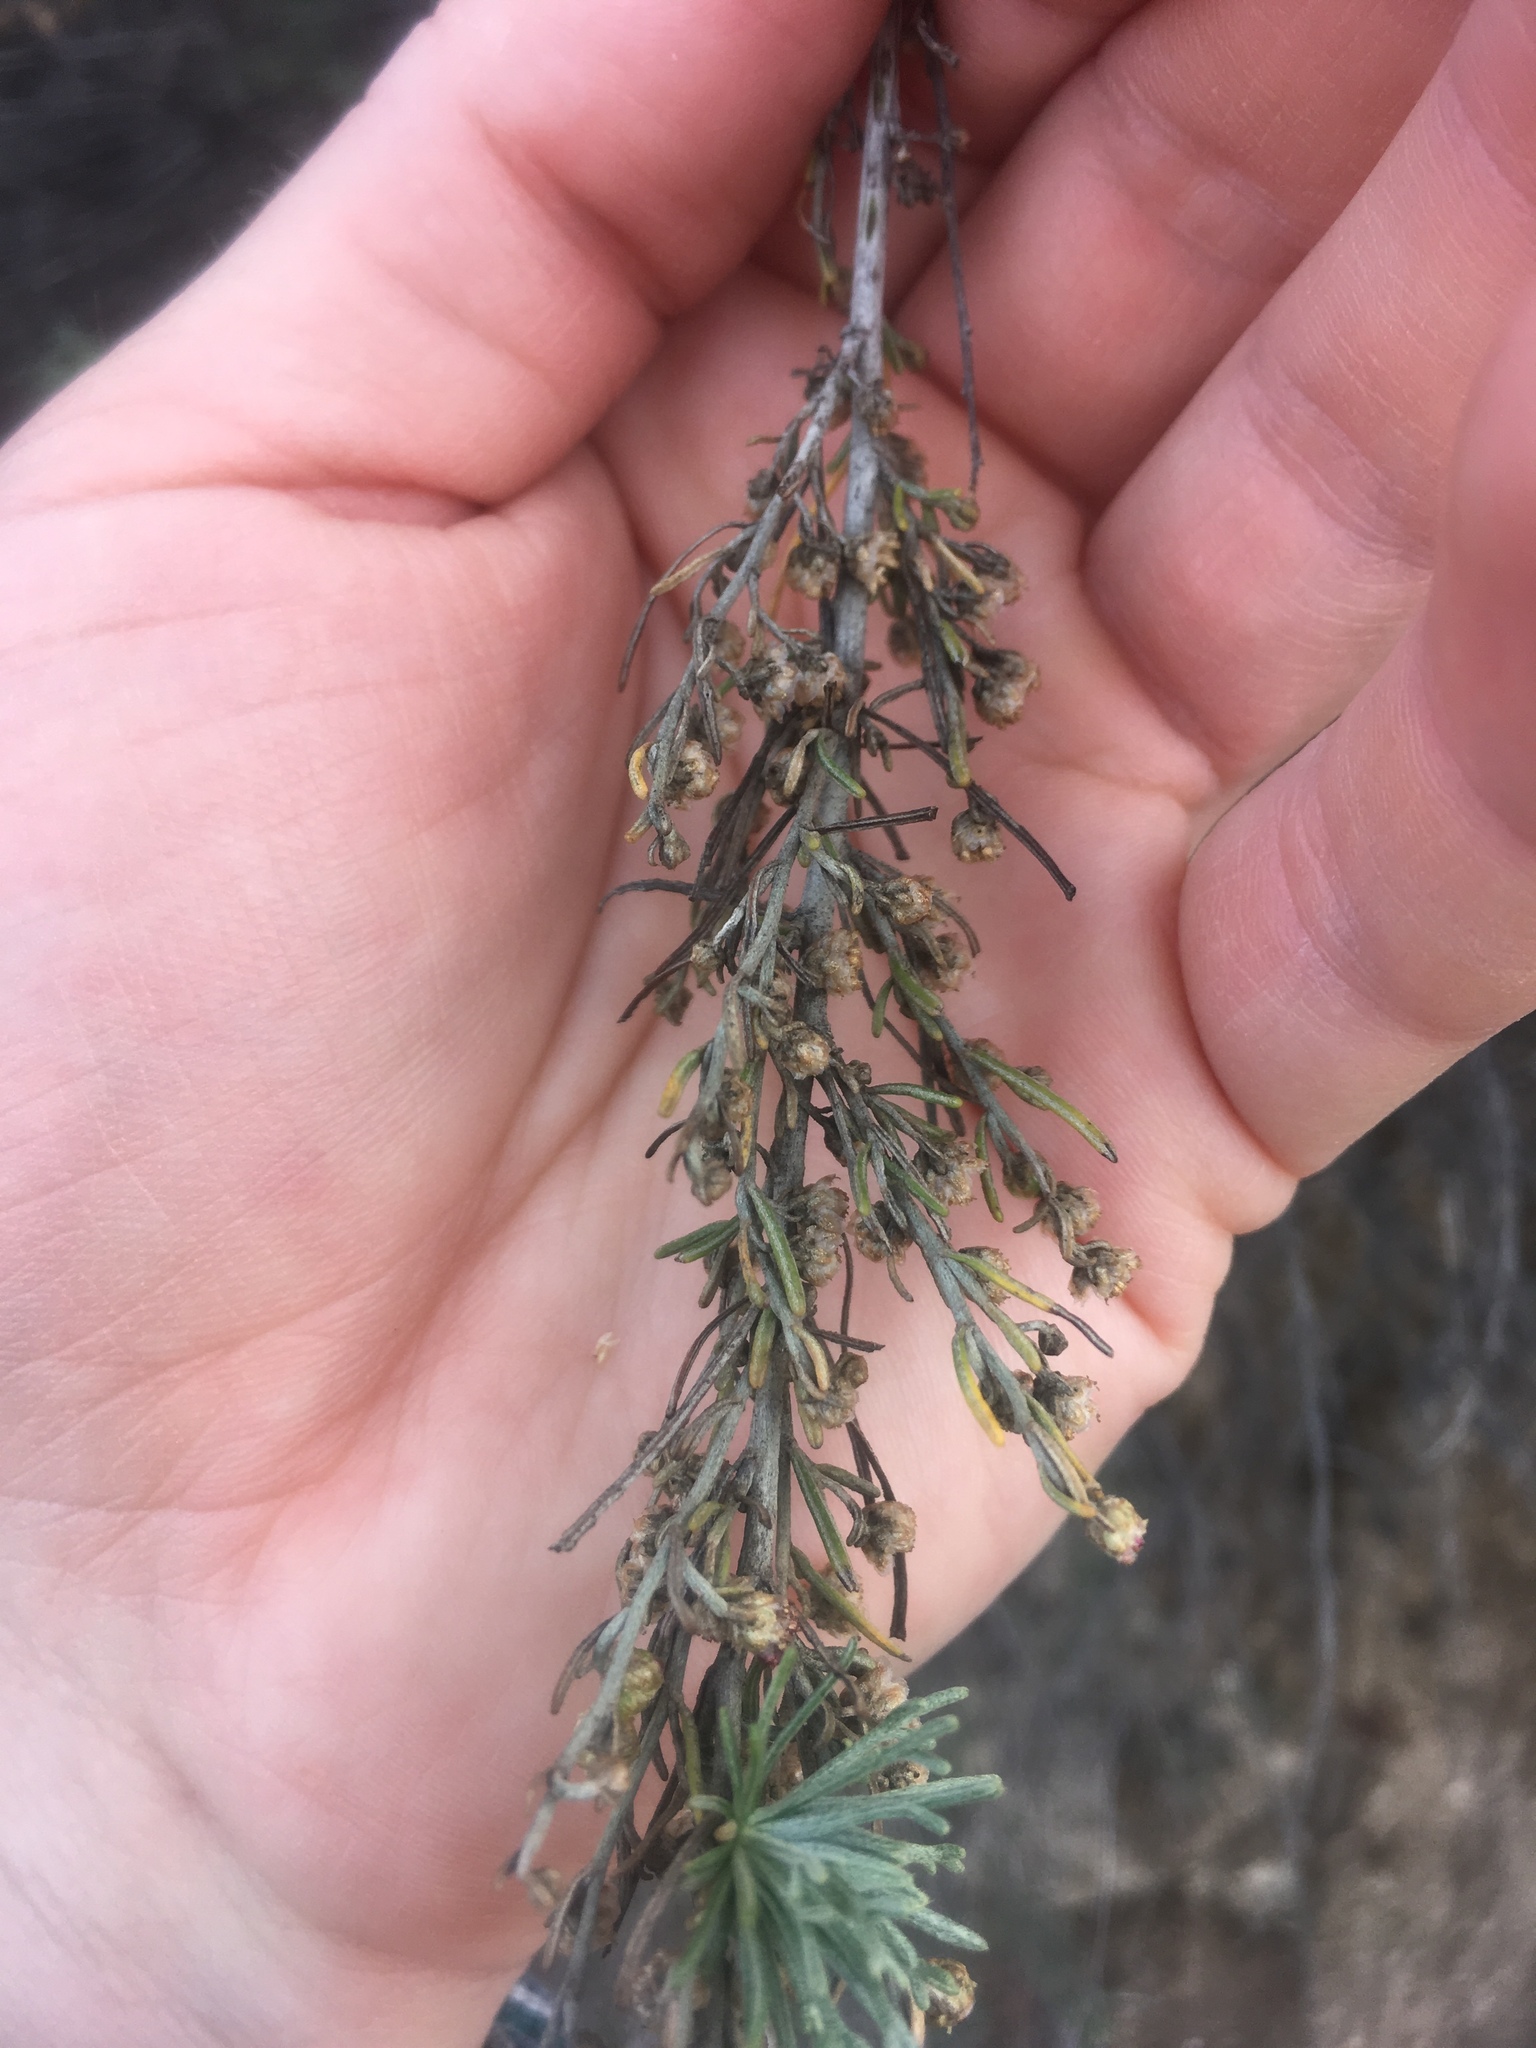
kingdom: Plantae
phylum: Tracheophyta
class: Magnoliopsida
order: Asterales
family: Asteraceae
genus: Artemisia
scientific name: Artemisia californica
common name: California sagebrush
